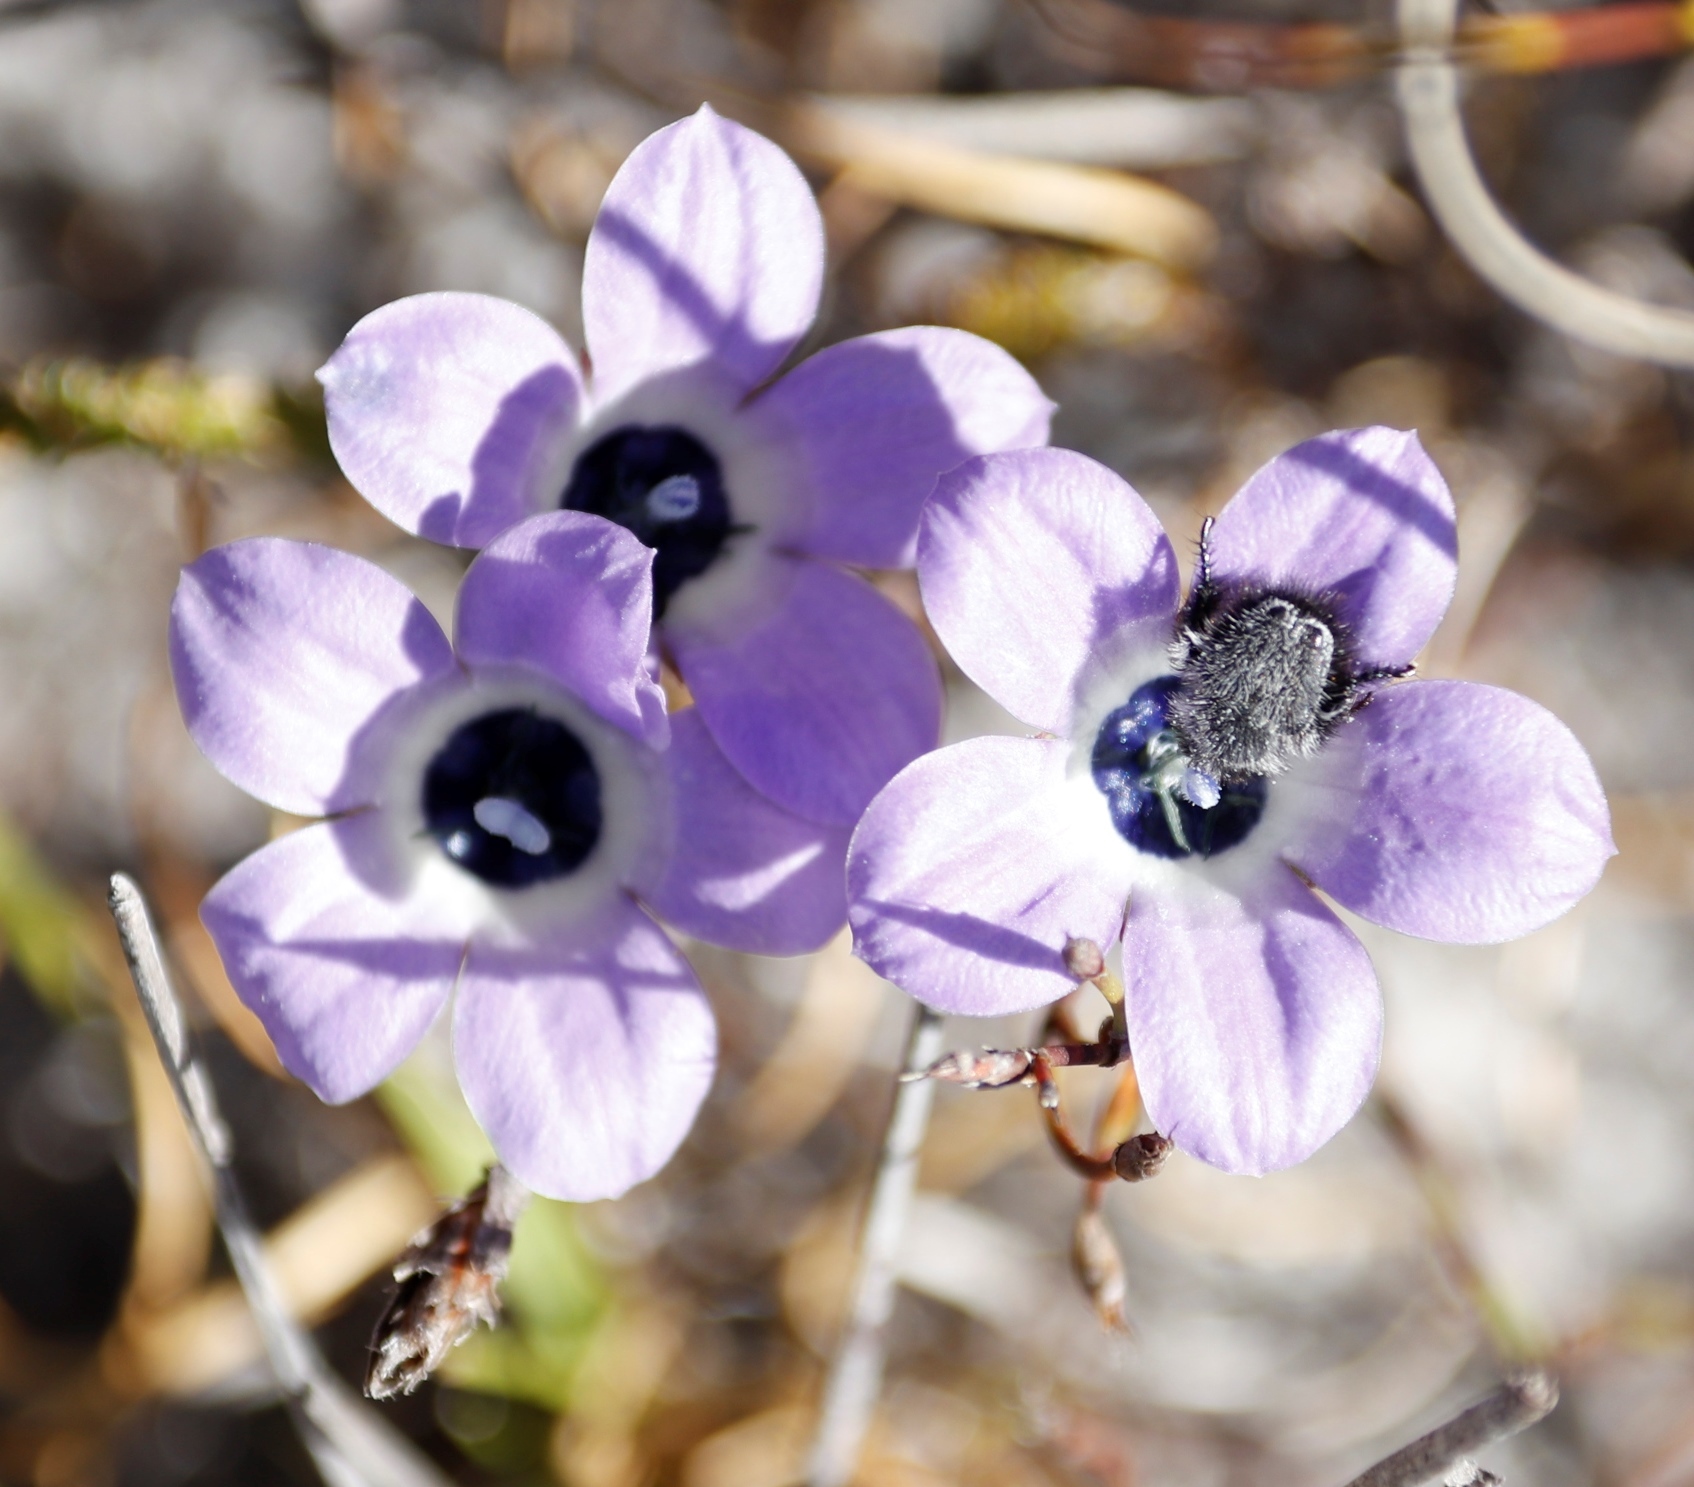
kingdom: Plantae
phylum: Tracheophyta
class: Magnoliopsida
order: Asterales
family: Campanulaceae
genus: Roella
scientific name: Roella triflora
